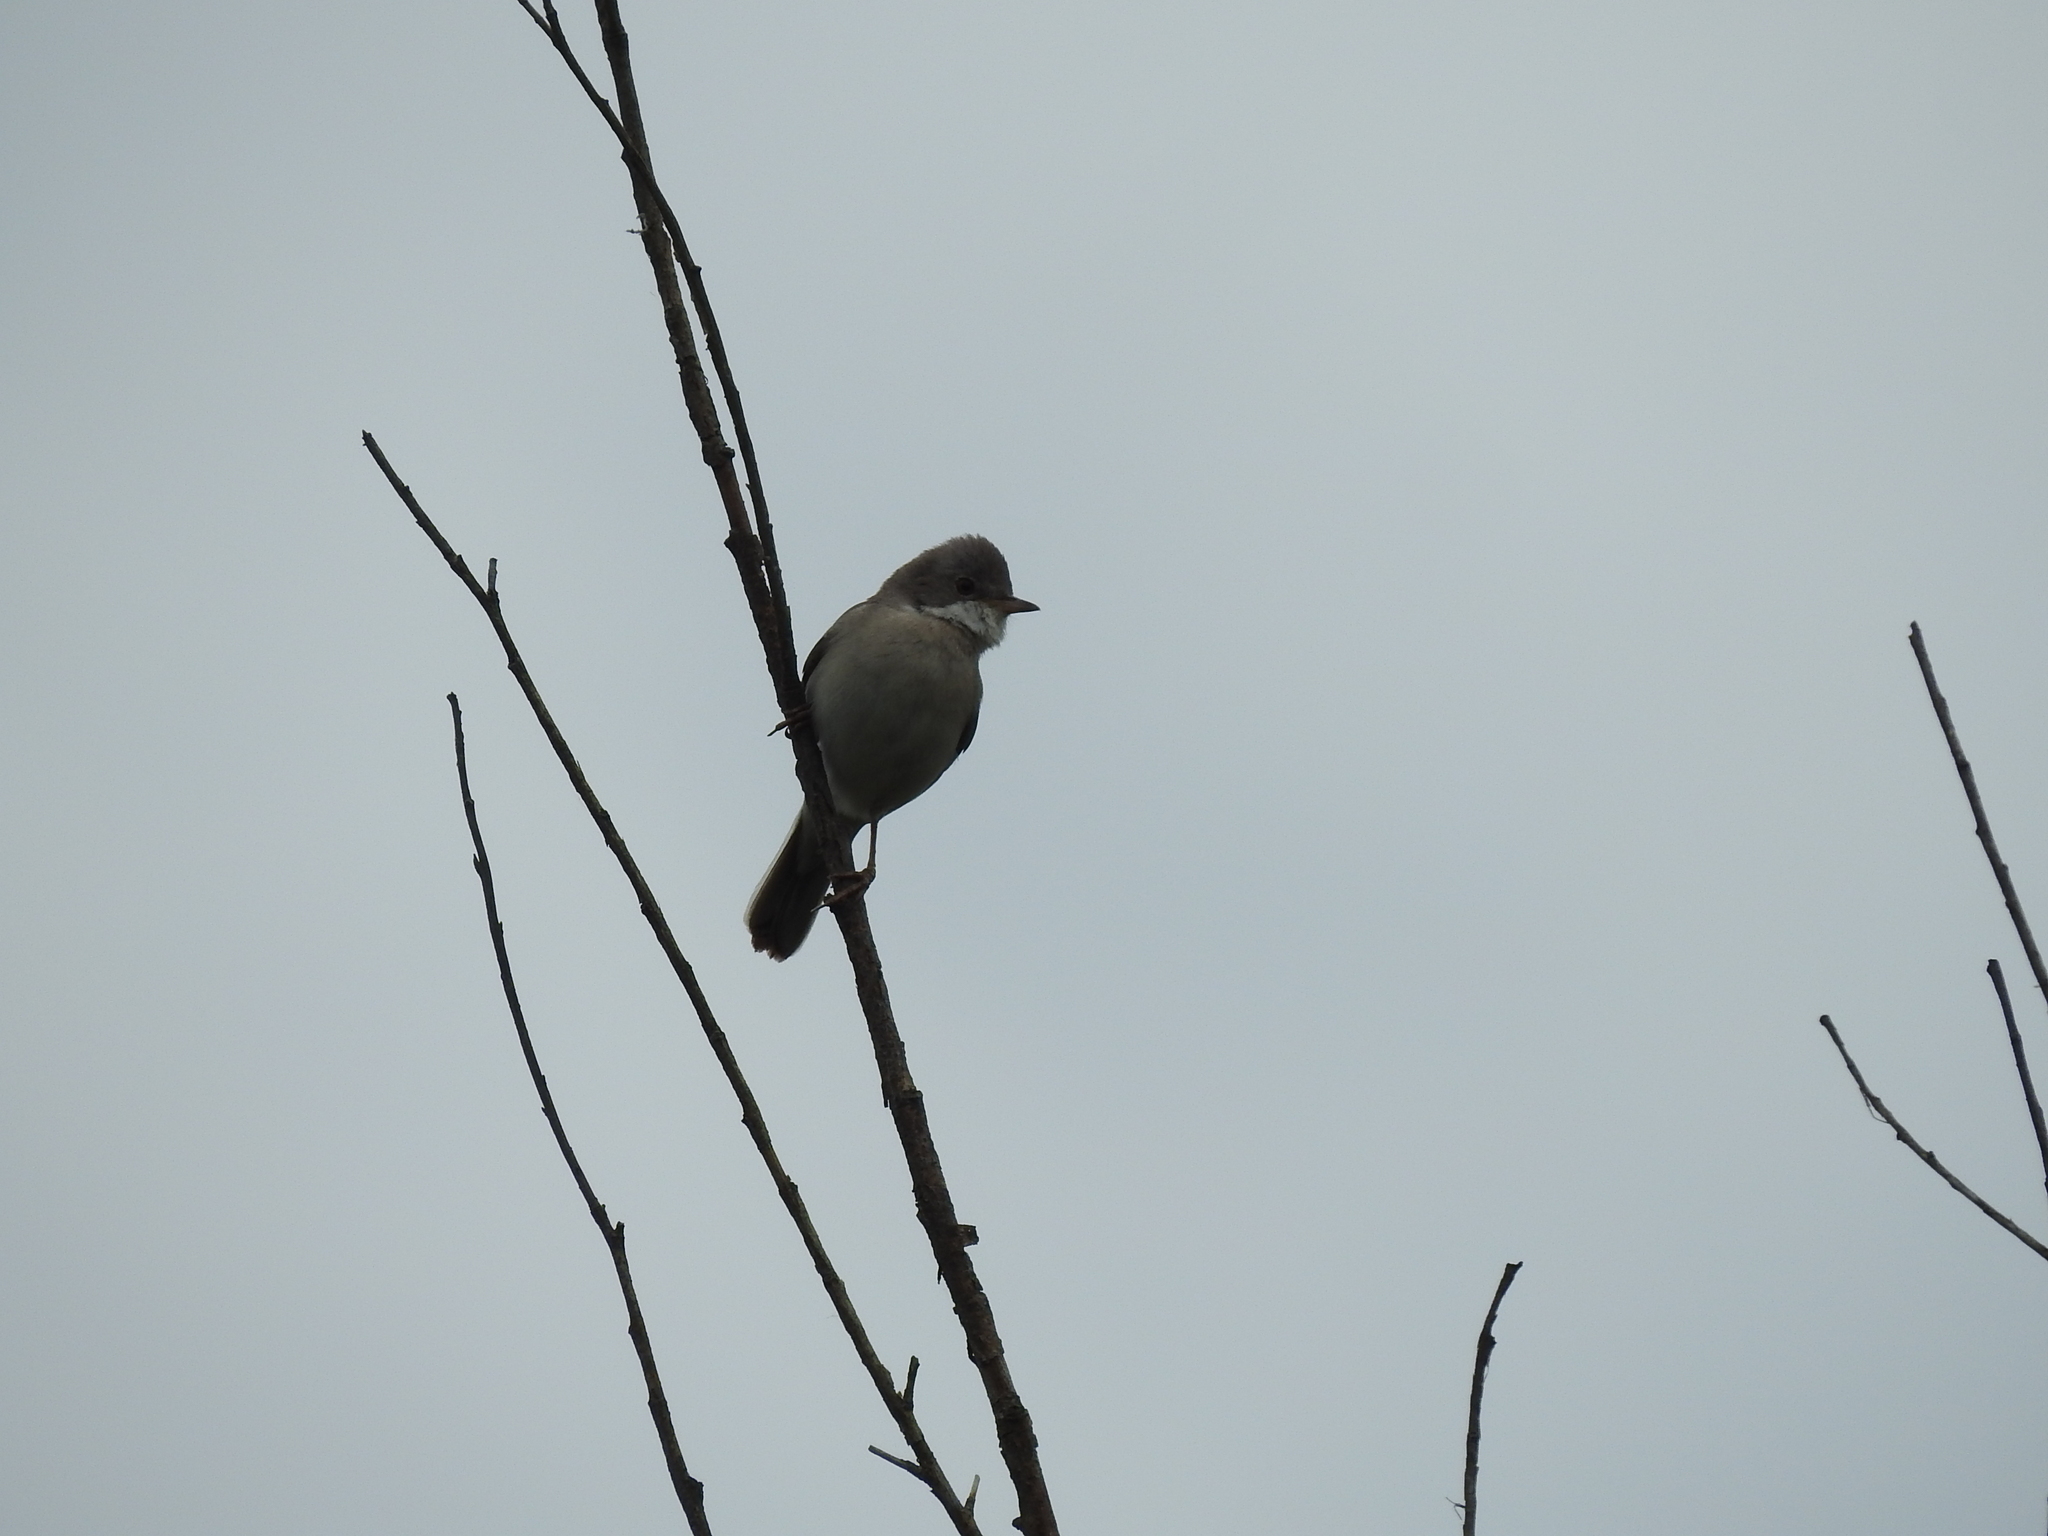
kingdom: Animalia
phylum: Chordata
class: Aves
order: Passeriformes
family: Sylviidae
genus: Sylvia
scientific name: Sylvia communis
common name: Common whitethroat
